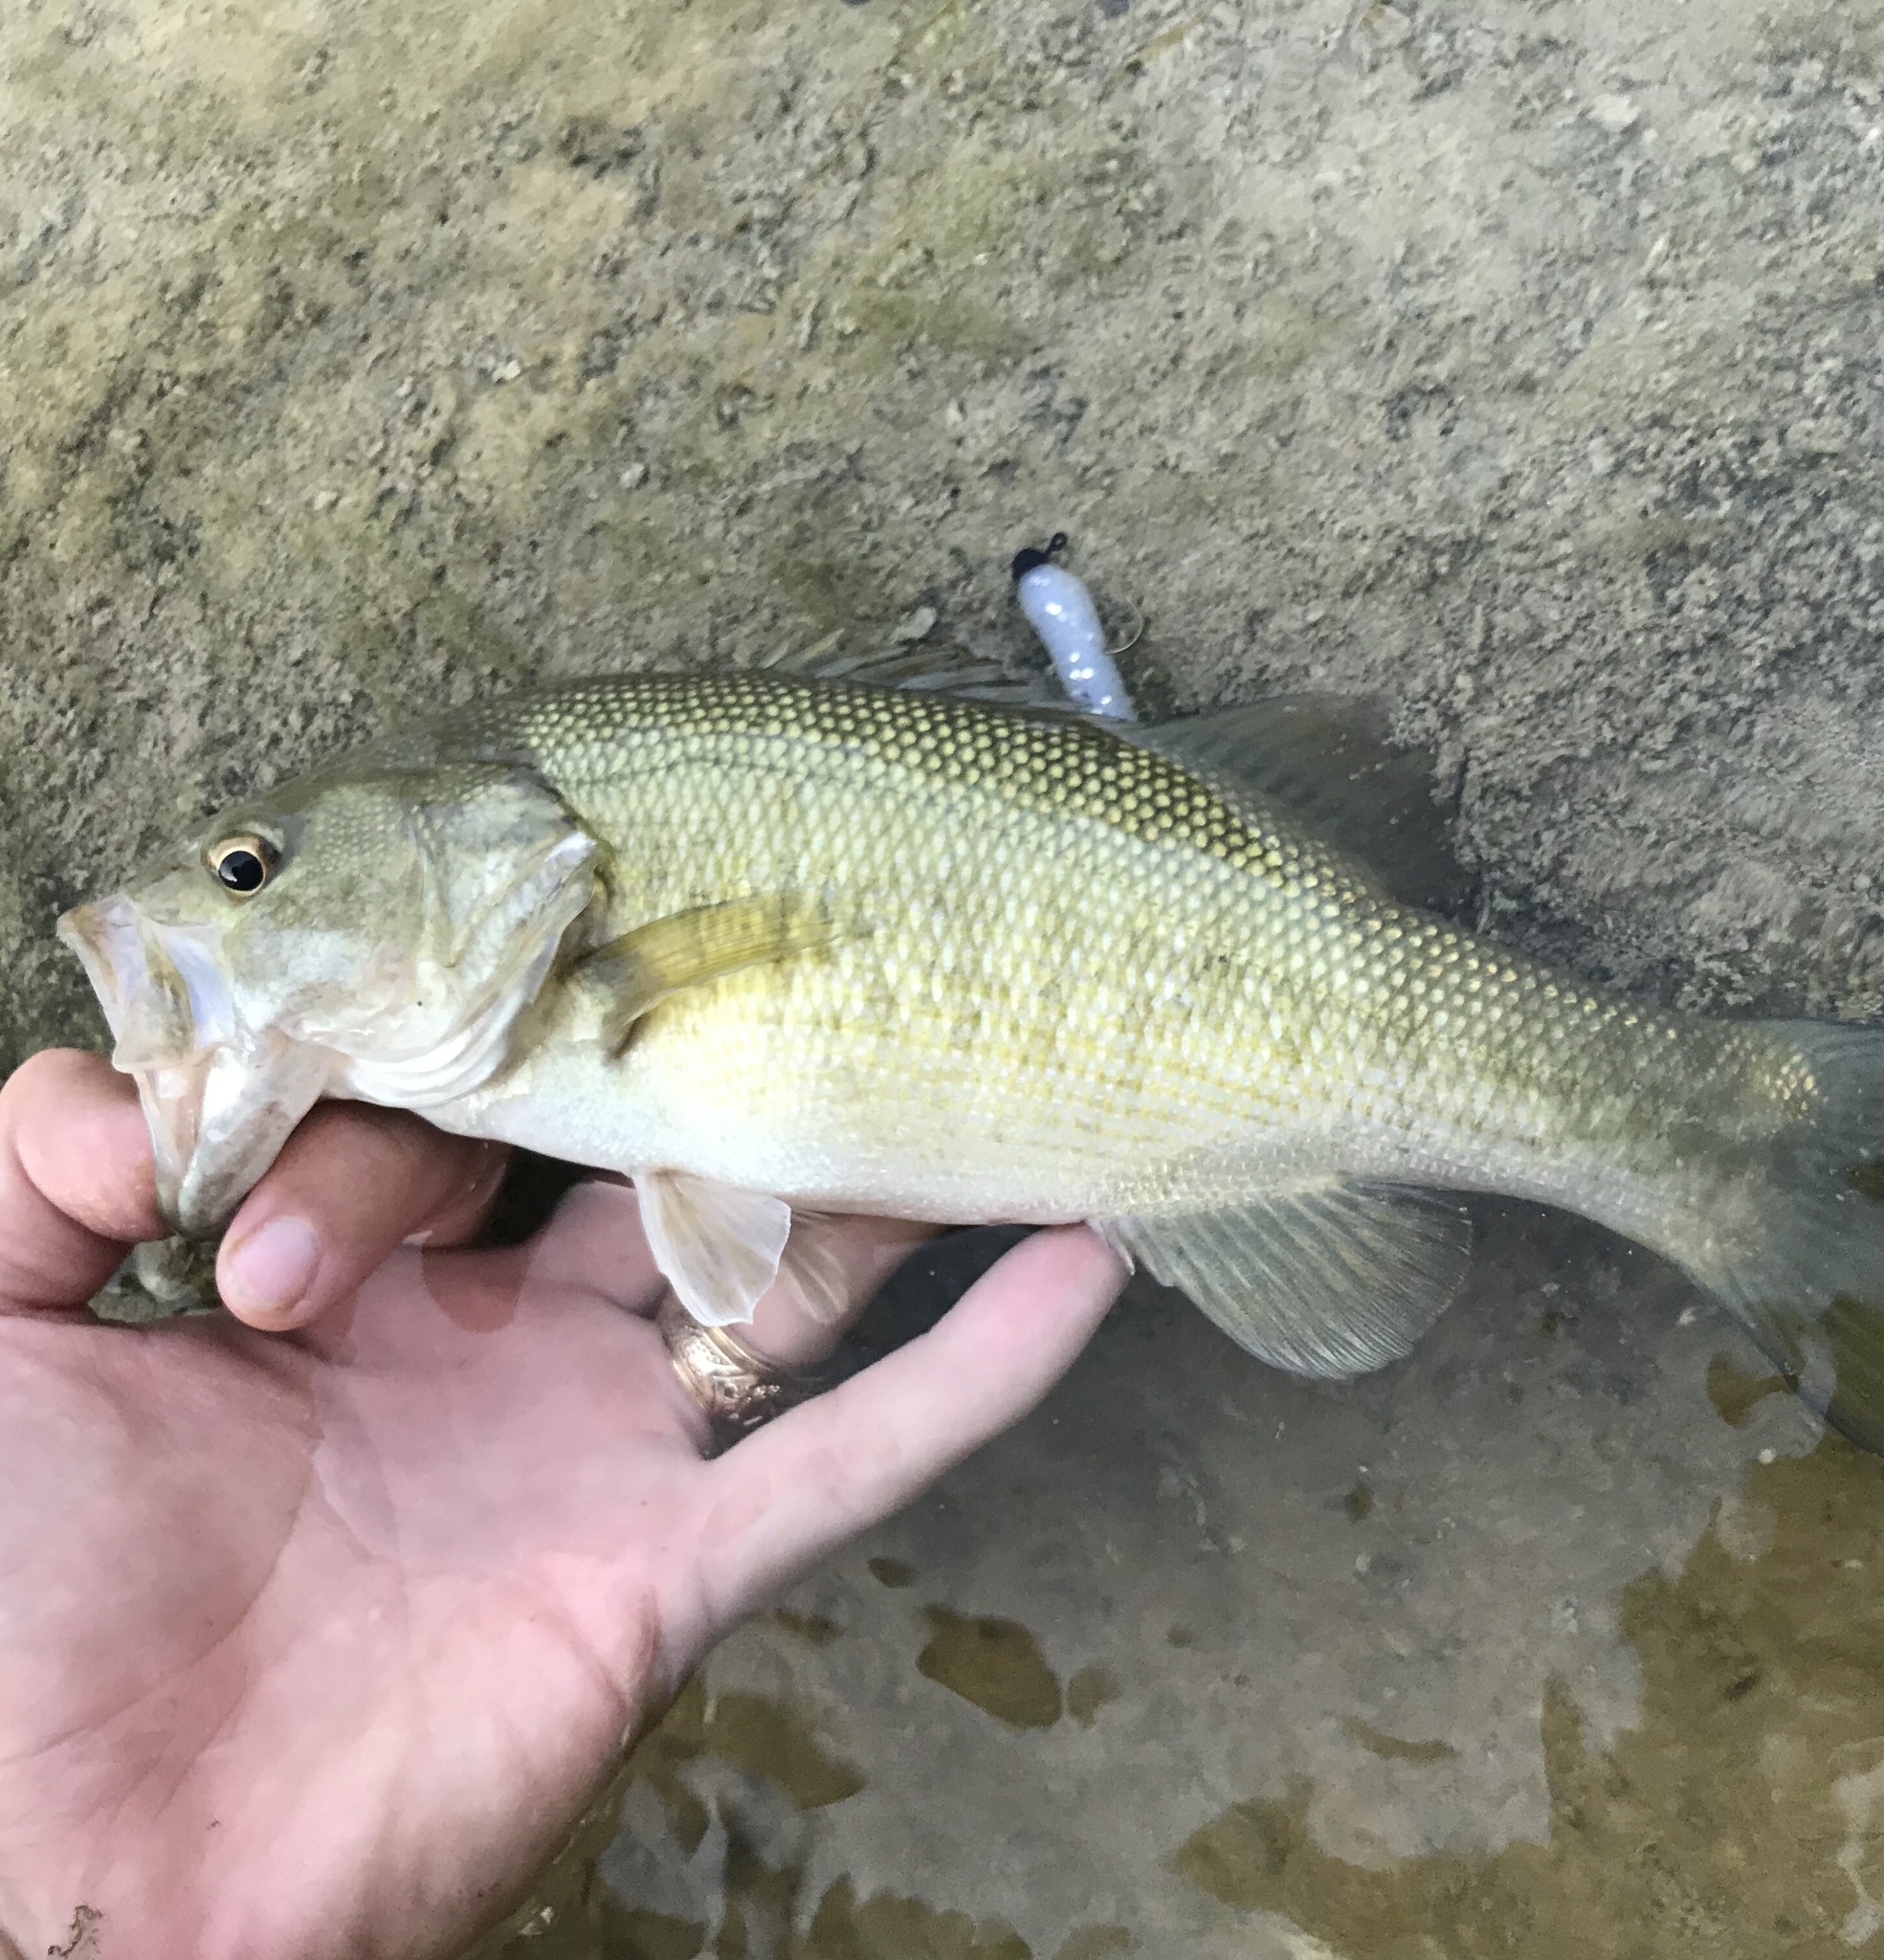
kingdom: Animalia
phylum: Chordata
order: Perciformes
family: Centrarchidae
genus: Micropterus
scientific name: Micropterus treculii
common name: Guadalupe bass
